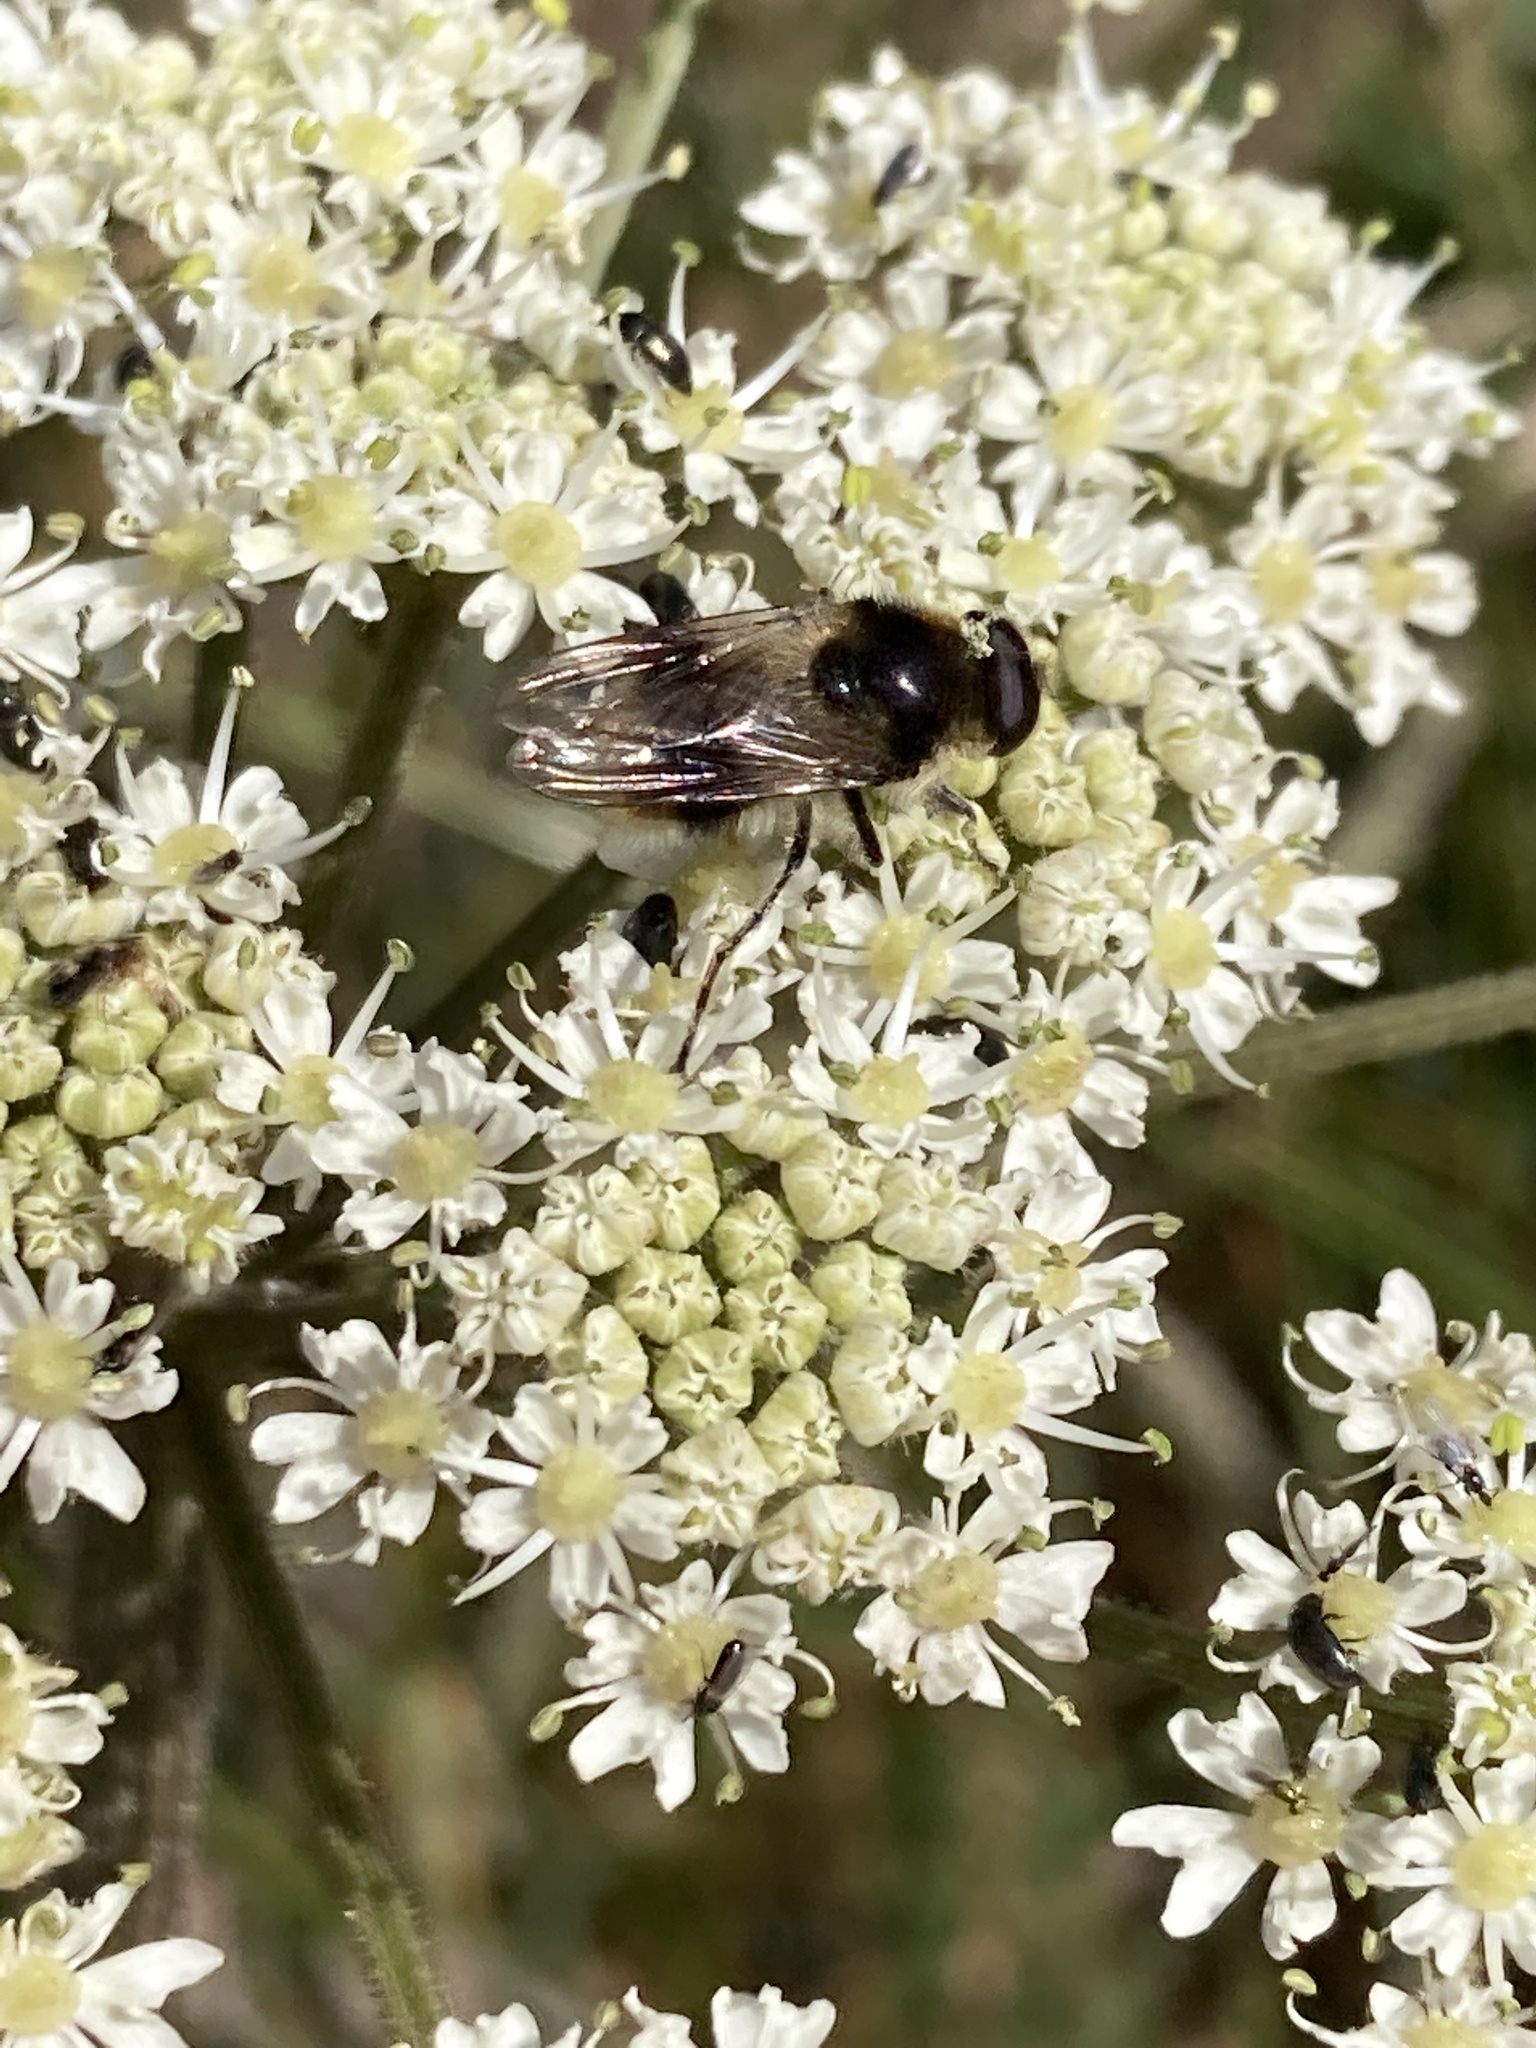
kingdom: Animalia
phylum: Arthropoda
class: Insecta
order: Diptera
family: Syrphidae
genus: Cheilosia
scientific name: Cheilosia illustrata
